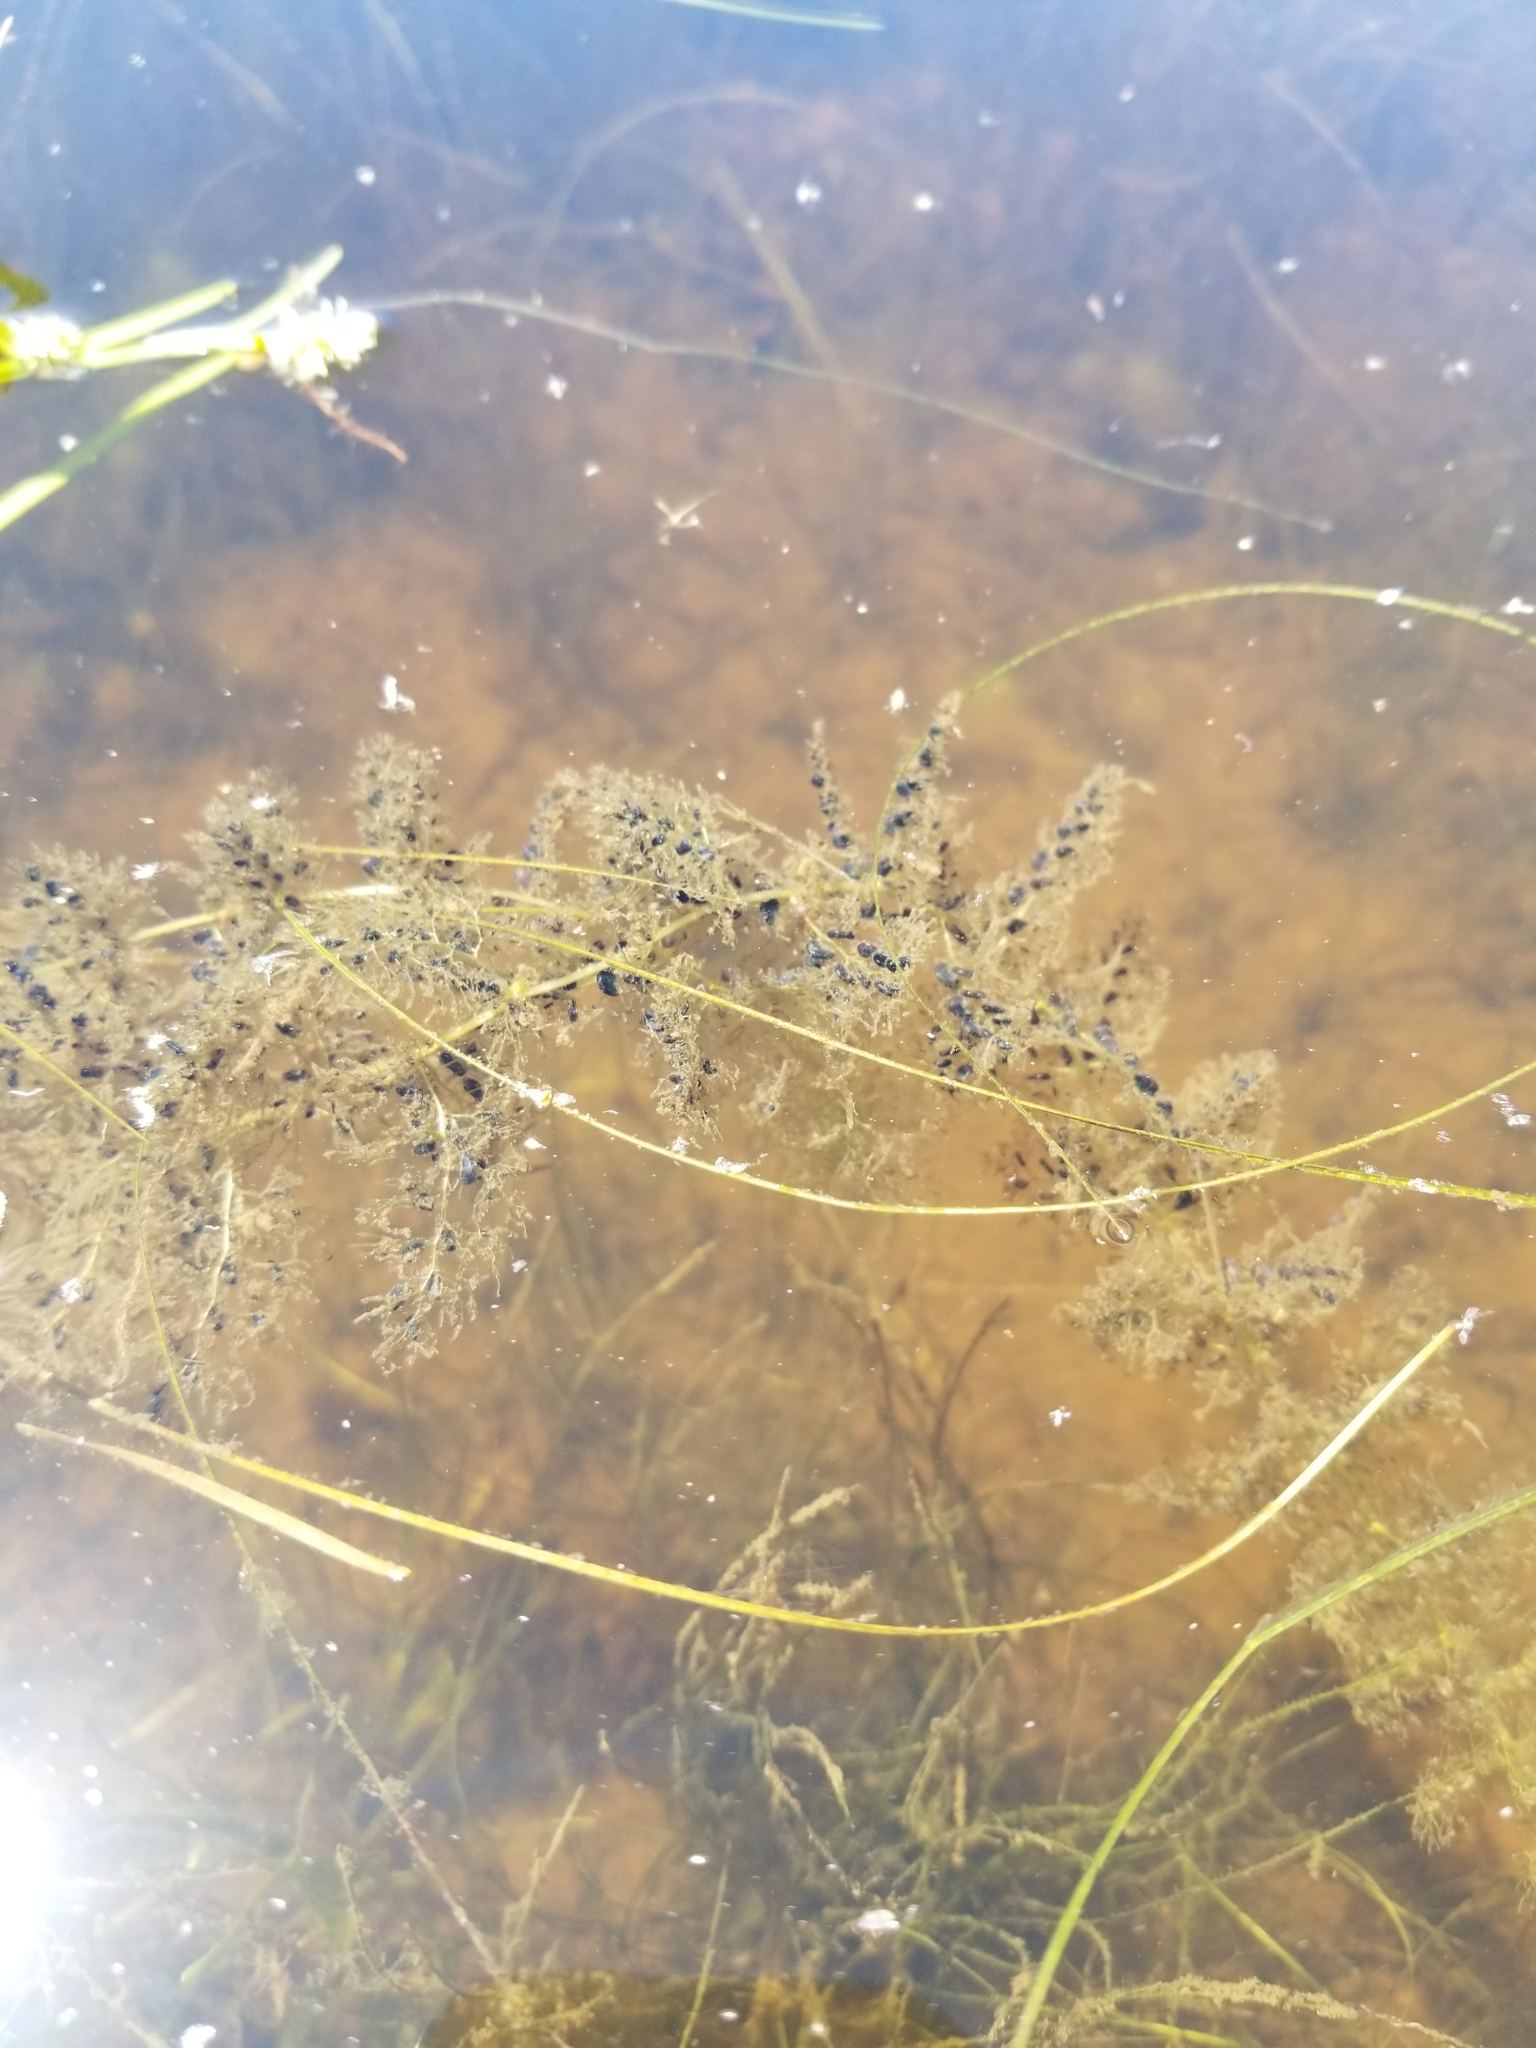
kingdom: Plantae
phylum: Tracheophyta
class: Magnoliopsida
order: Lamiales
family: Lentibulariaceae
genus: Utricularia
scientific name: Utricularia macrorhiza
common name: Common bladderwort
